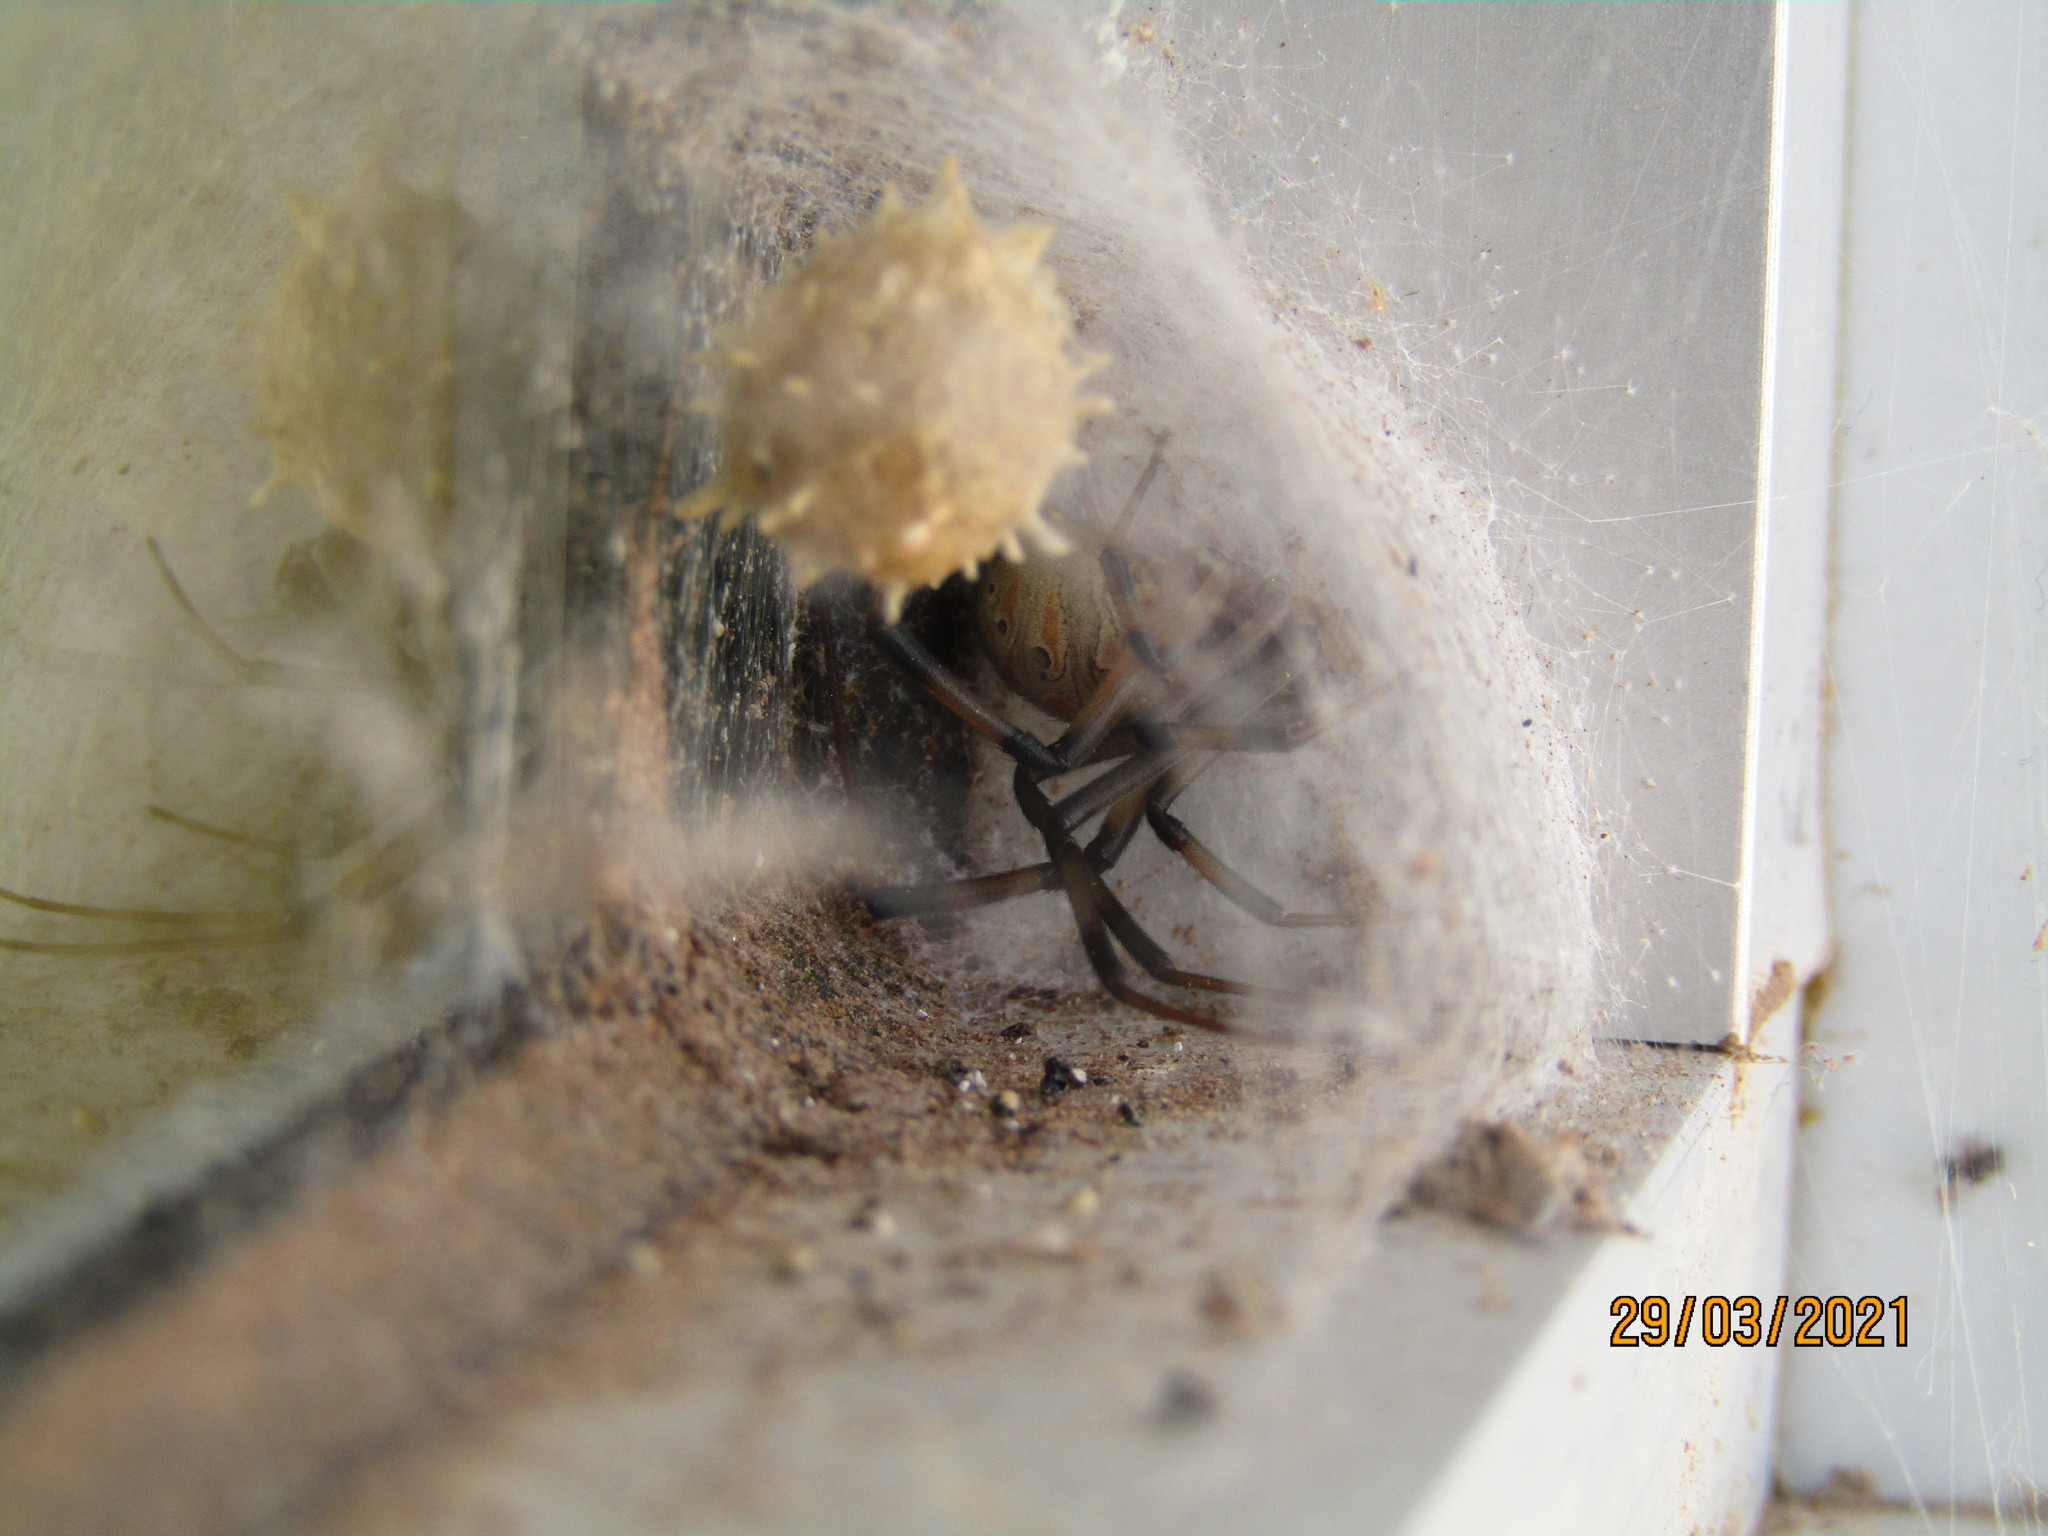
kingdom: Animalia
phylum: Arthropoda
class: Arachnida
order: Araneae
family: Theridiidae
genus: Latrodectus
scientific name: Latrodectus geometricus
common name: Brown widow spider
